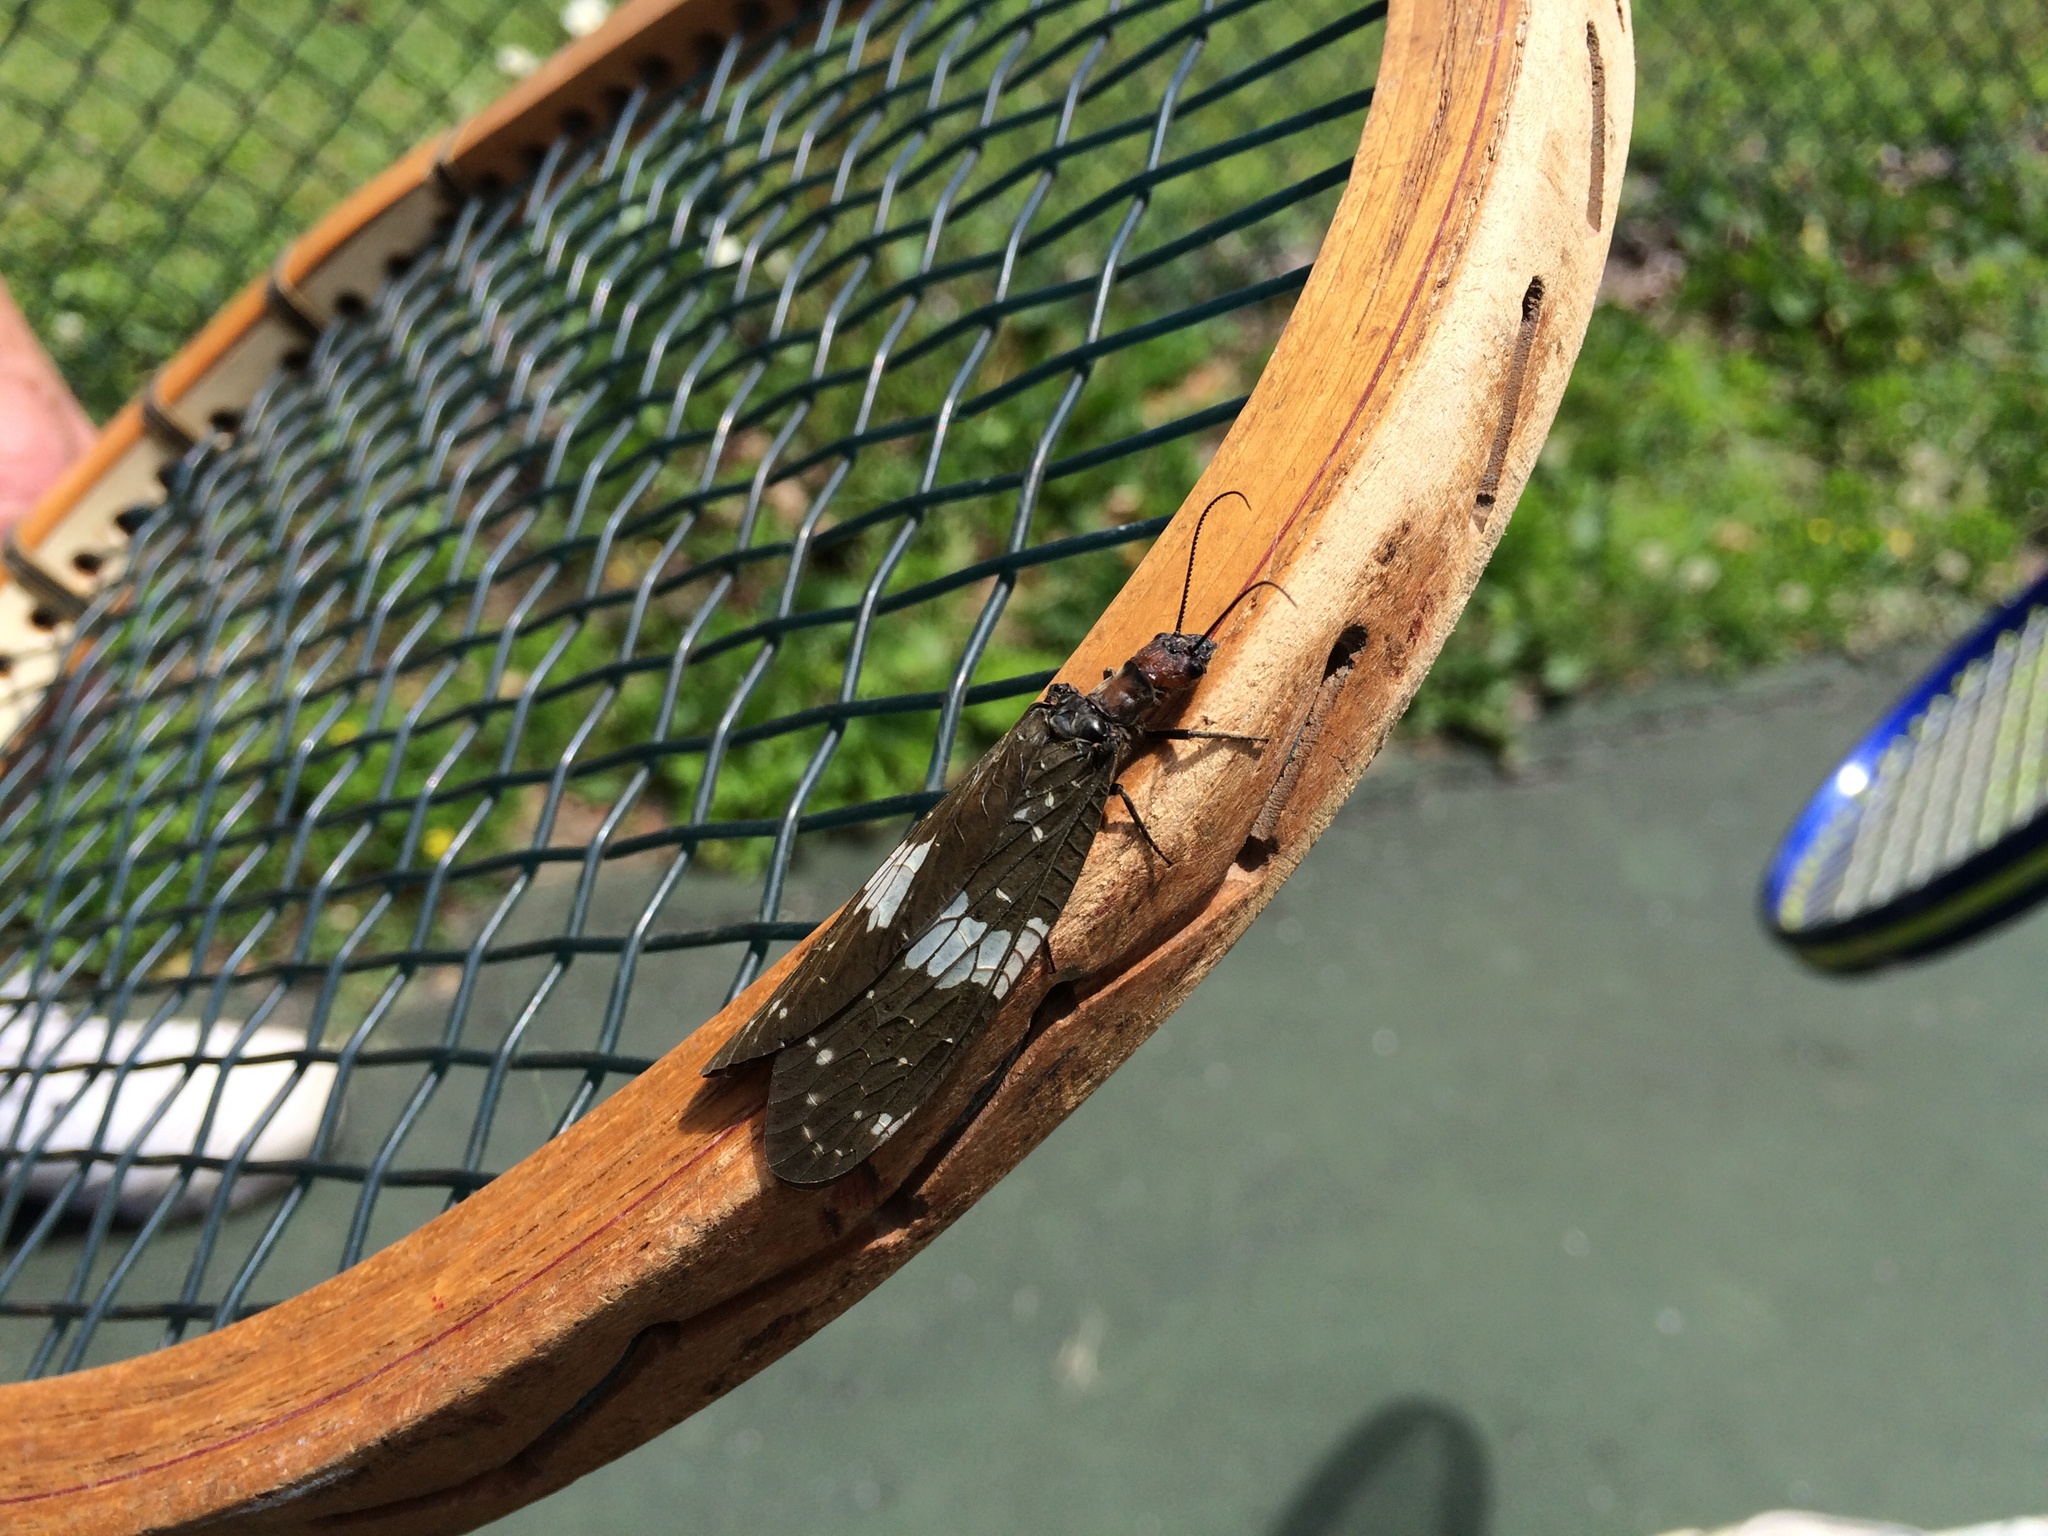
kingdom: Animalia
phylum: Arthropoda
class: Insecta
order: Megaloptera
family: Corydalidae
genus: Nigronia
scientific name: Nigronia serricornis
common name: Serrate dark fishfly
